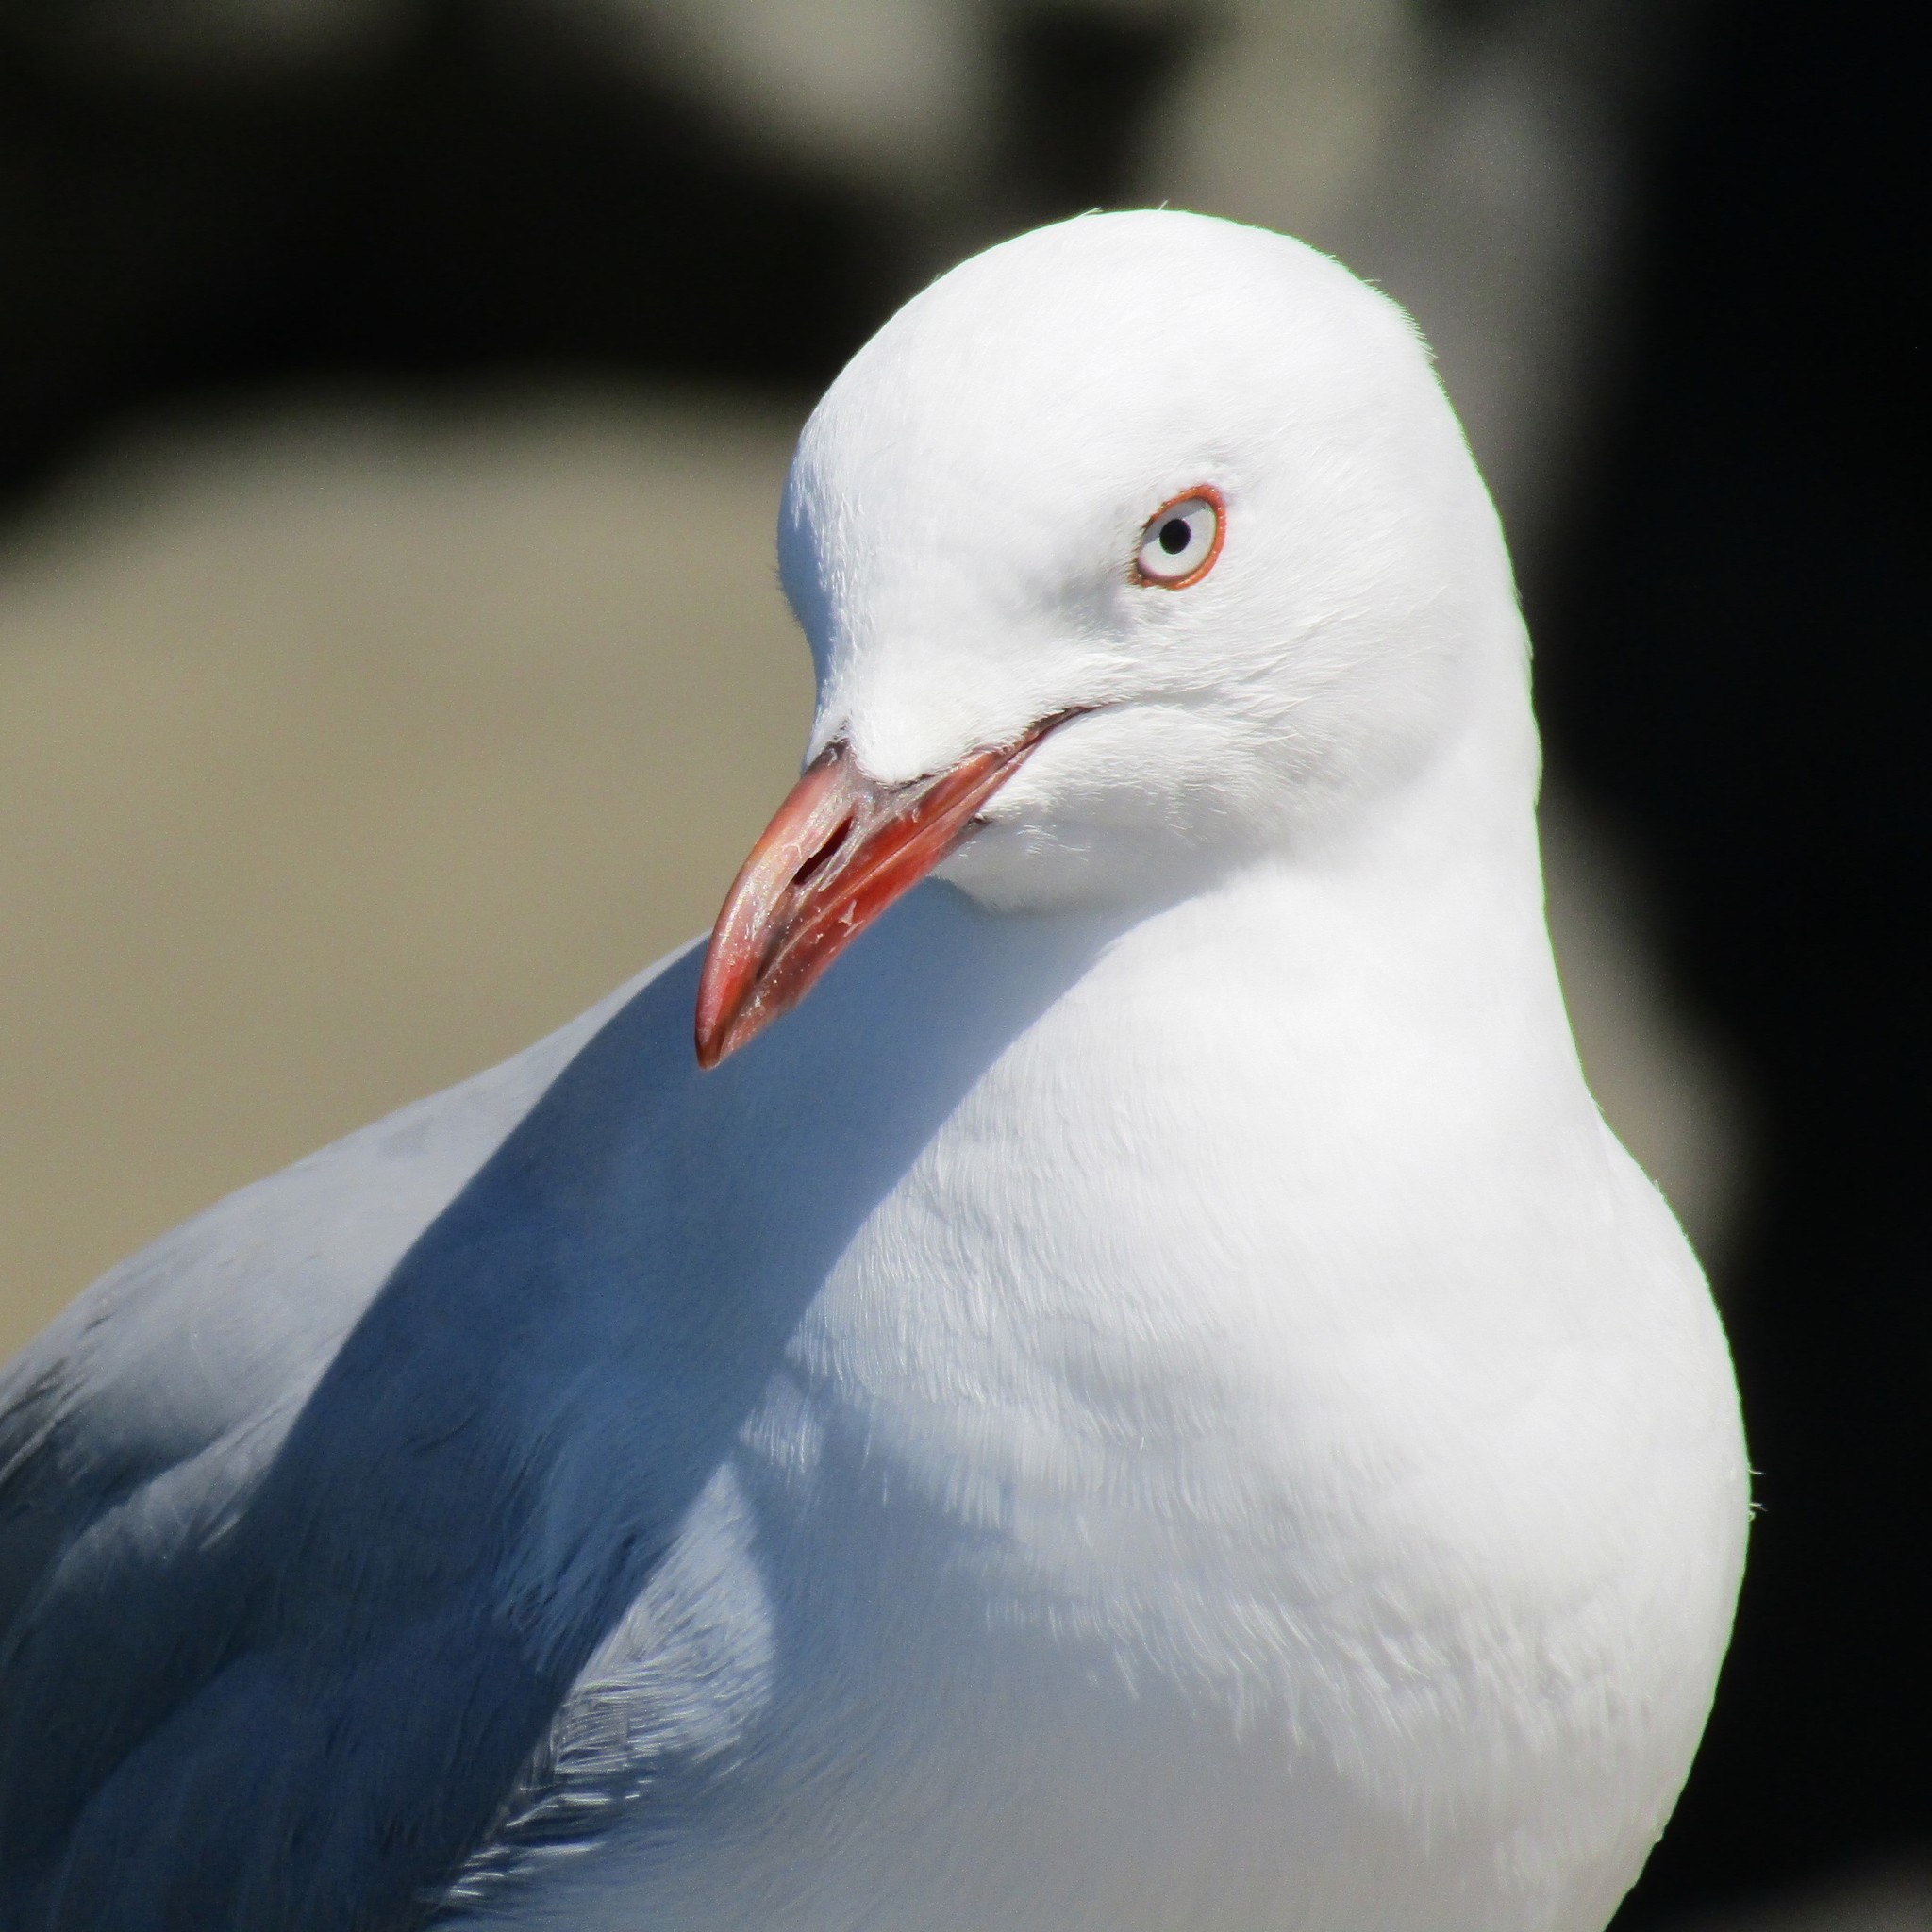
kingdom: Animalia
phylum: Chordata
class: Aves
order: Charadriiformes
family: Laridae
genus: Chroicocephalus
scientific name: Chroicocephalus novaehollandiae
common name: Silver gull
